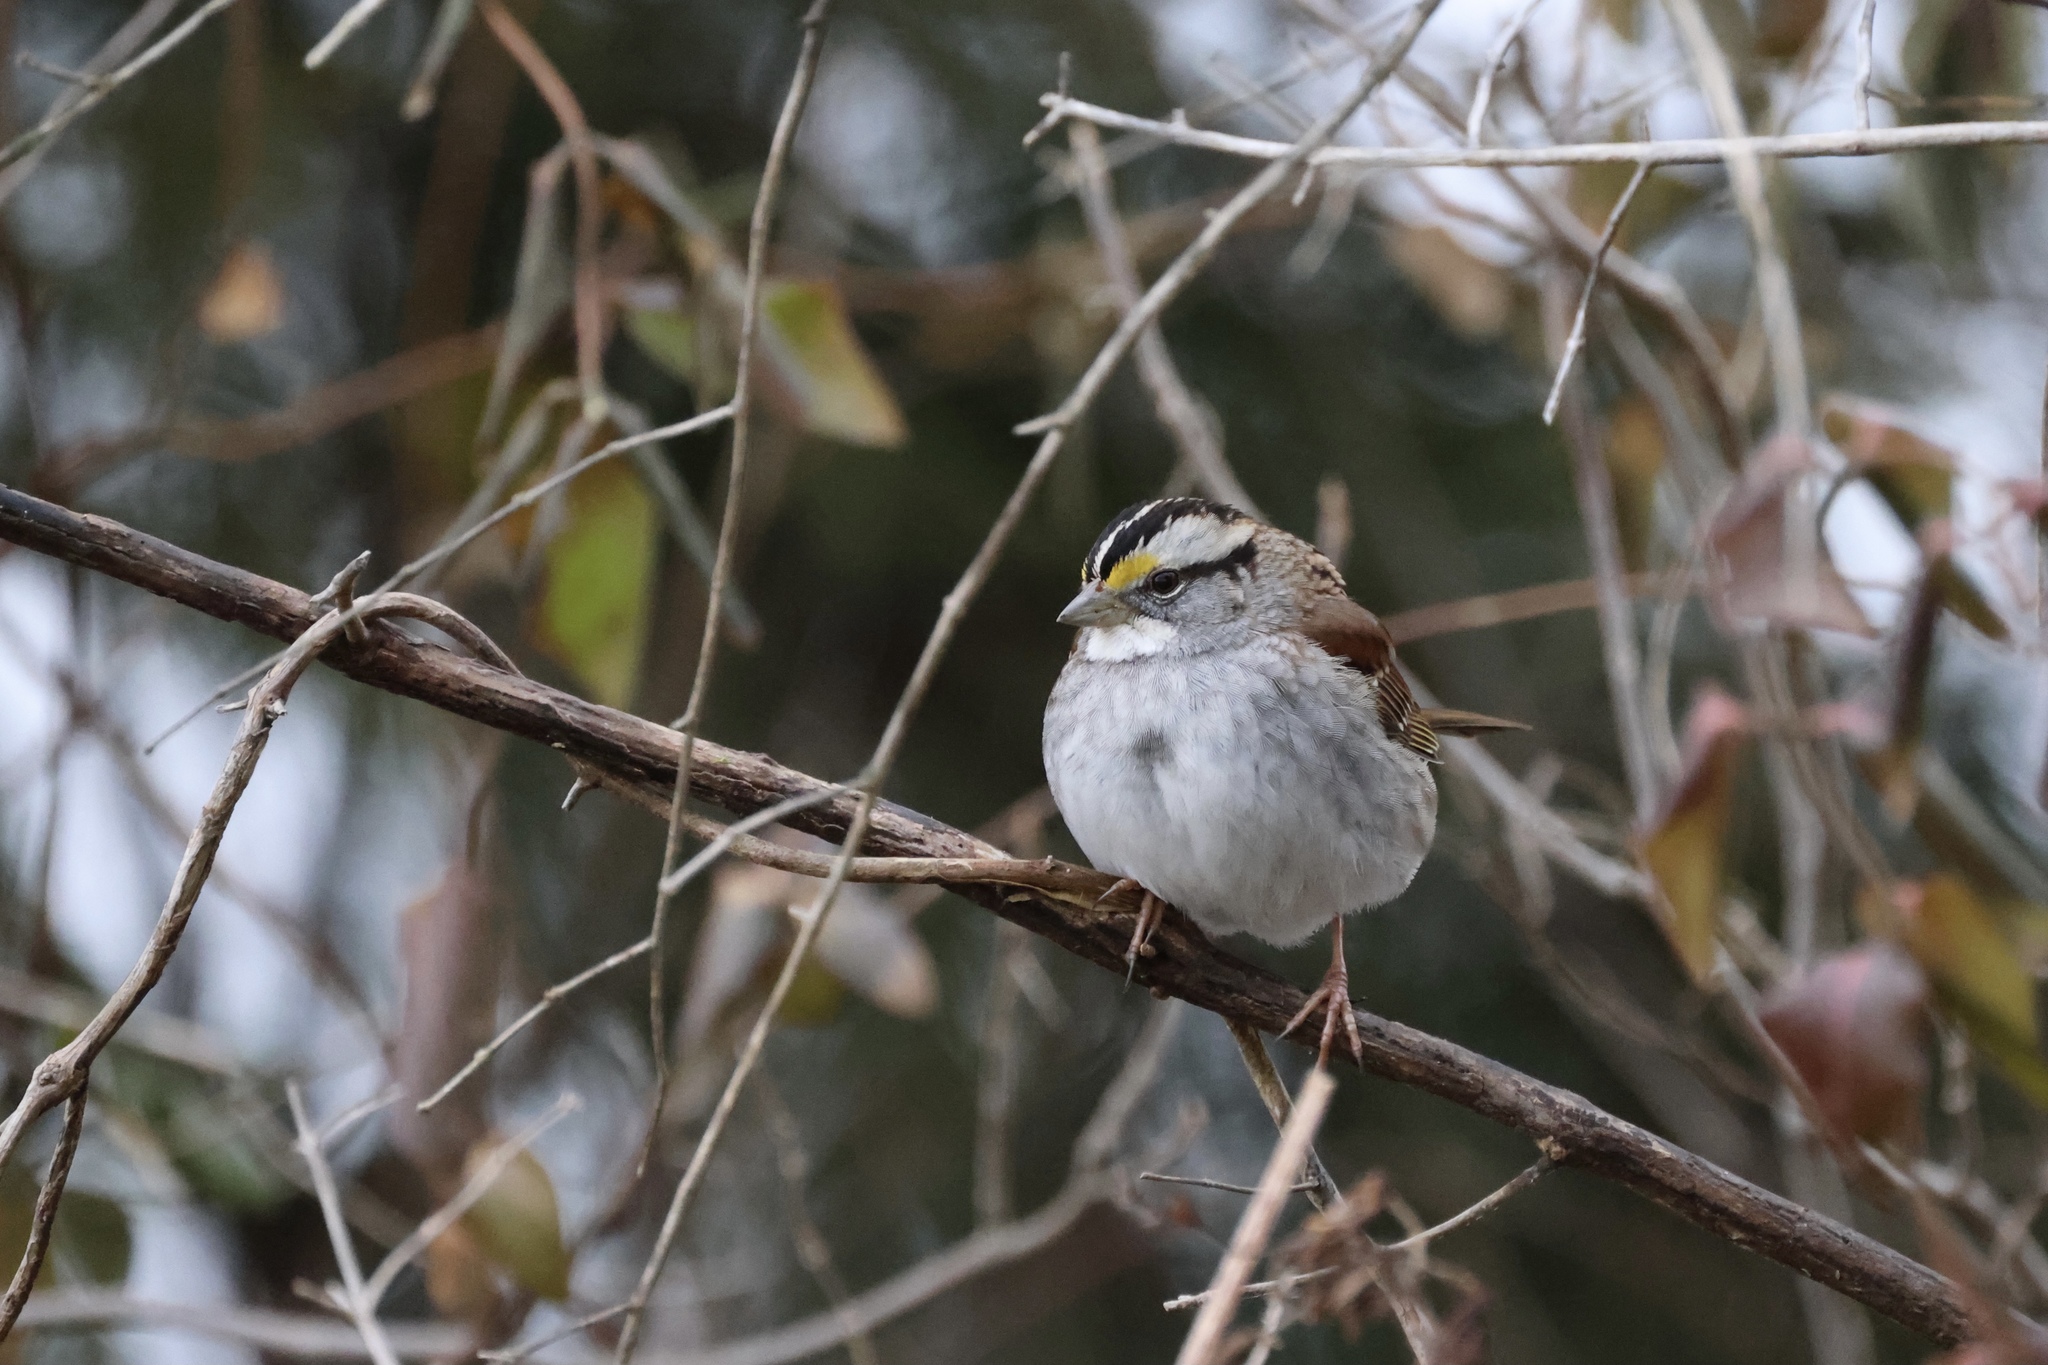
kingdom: Animalia
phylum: Chordata
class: Aves
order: Passeriformes
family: Passerellidae
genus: Zonotrichia
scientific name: Zonotrichia albicollis
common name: White-throated sparrow
